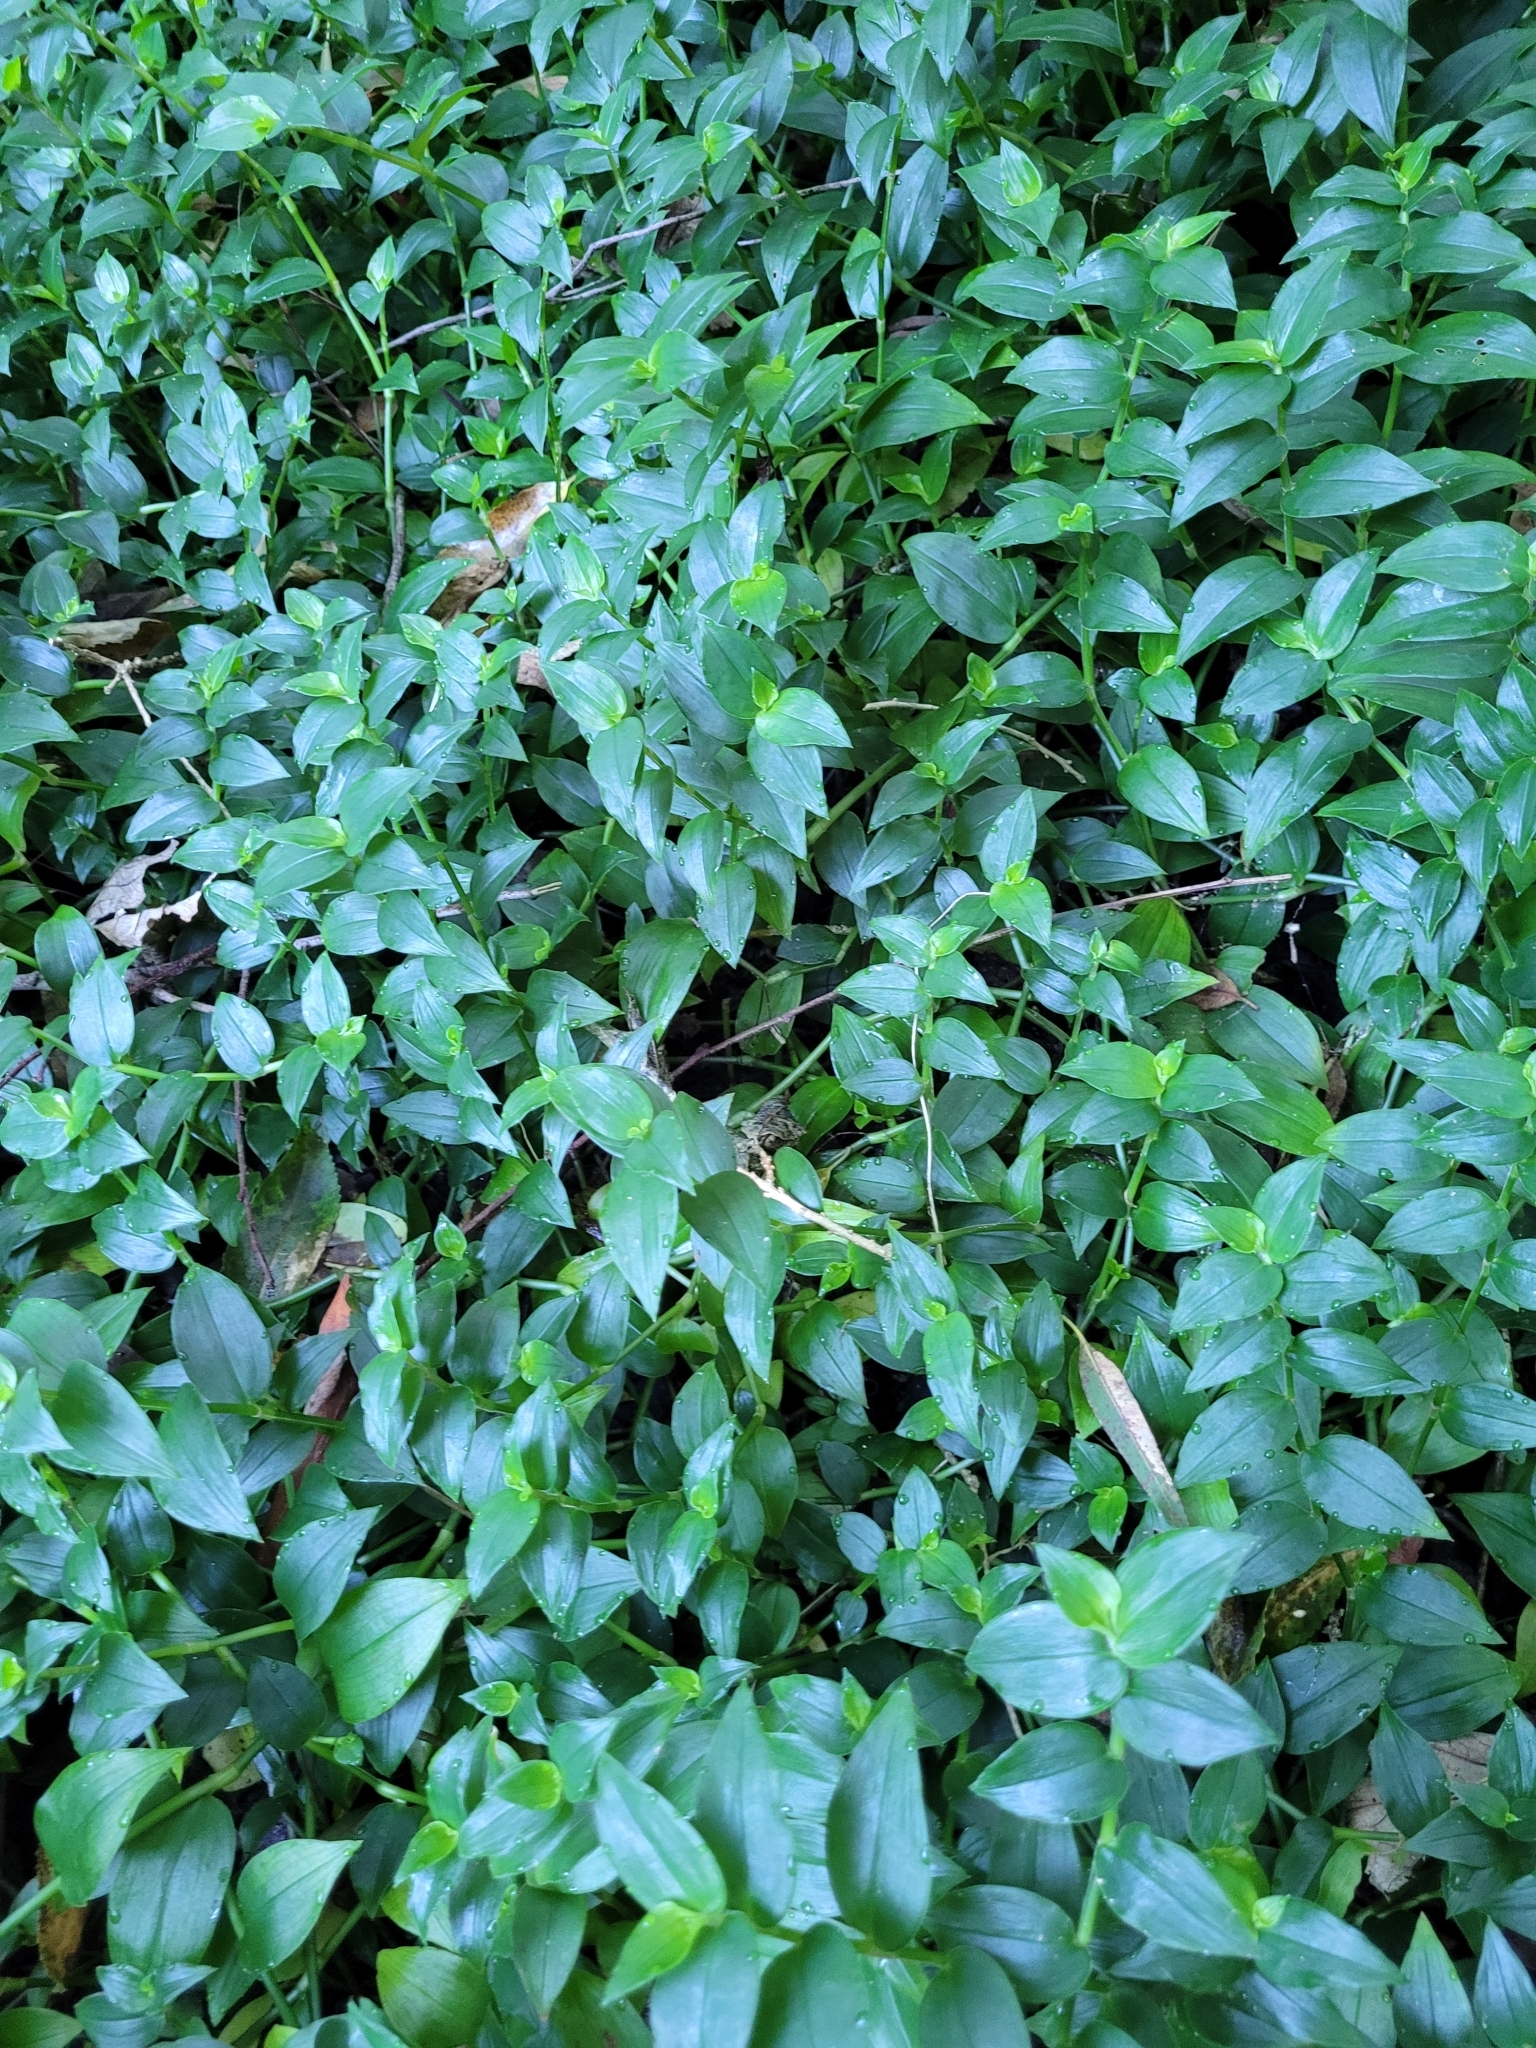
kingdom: Plantae
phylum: Tracheophyta
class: Liliopsida
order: Commelinales
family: Commelinaceae
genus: Tradescantia
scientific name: Tradescantia fluminensis
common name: Wandering-jew
